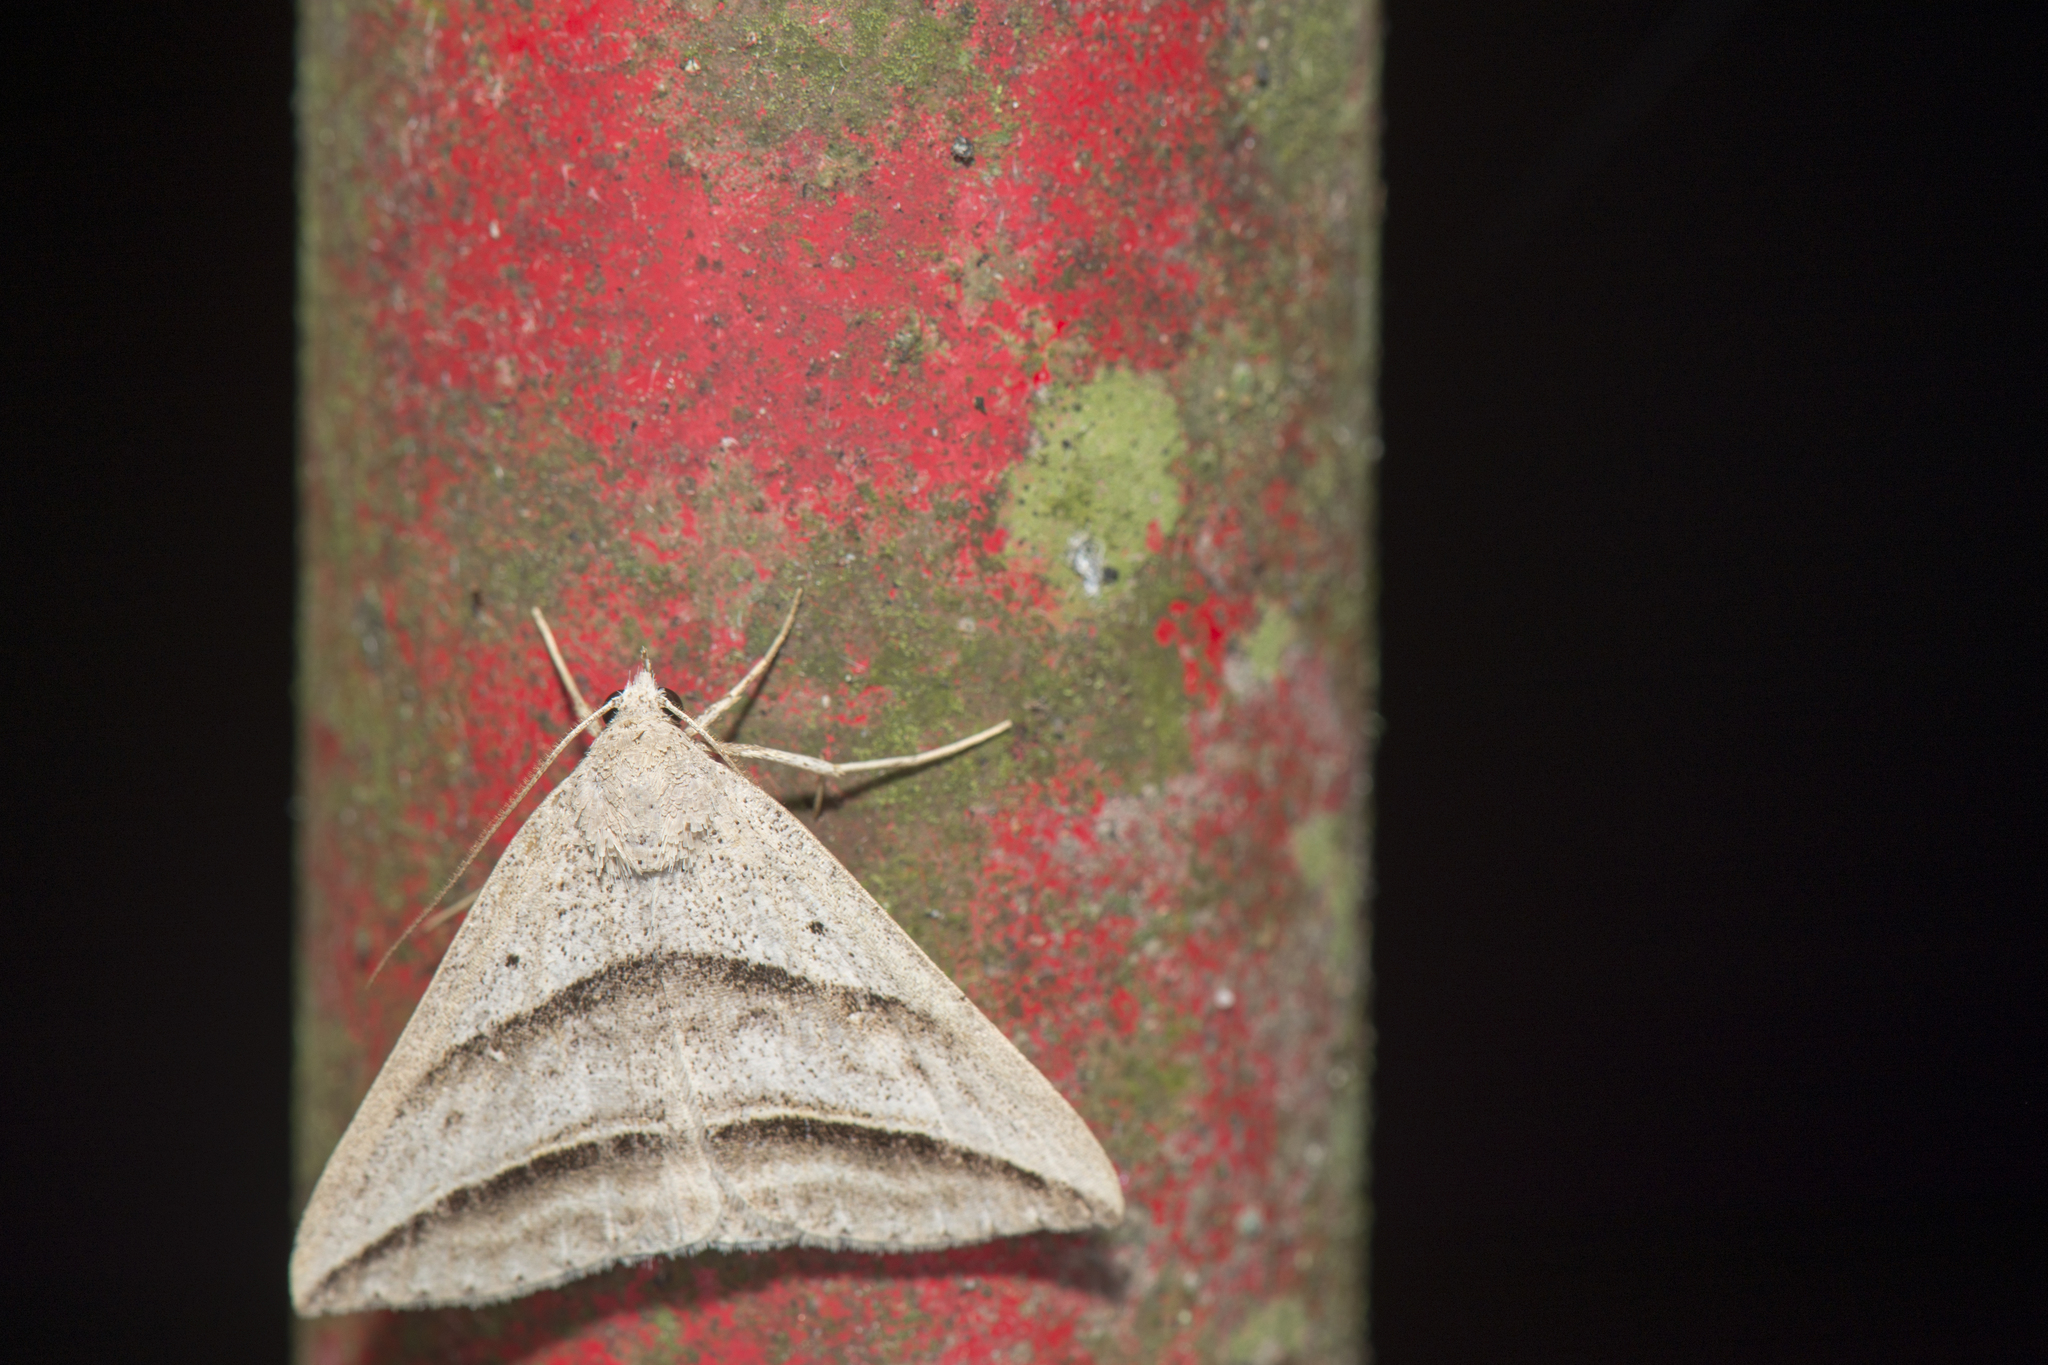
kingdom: Animalia
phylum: Arthropoda
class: Insecta
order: Lepidoptera
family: Erebidae
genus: Blasticorhinus
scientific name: Blasticorhinus bifasciata
